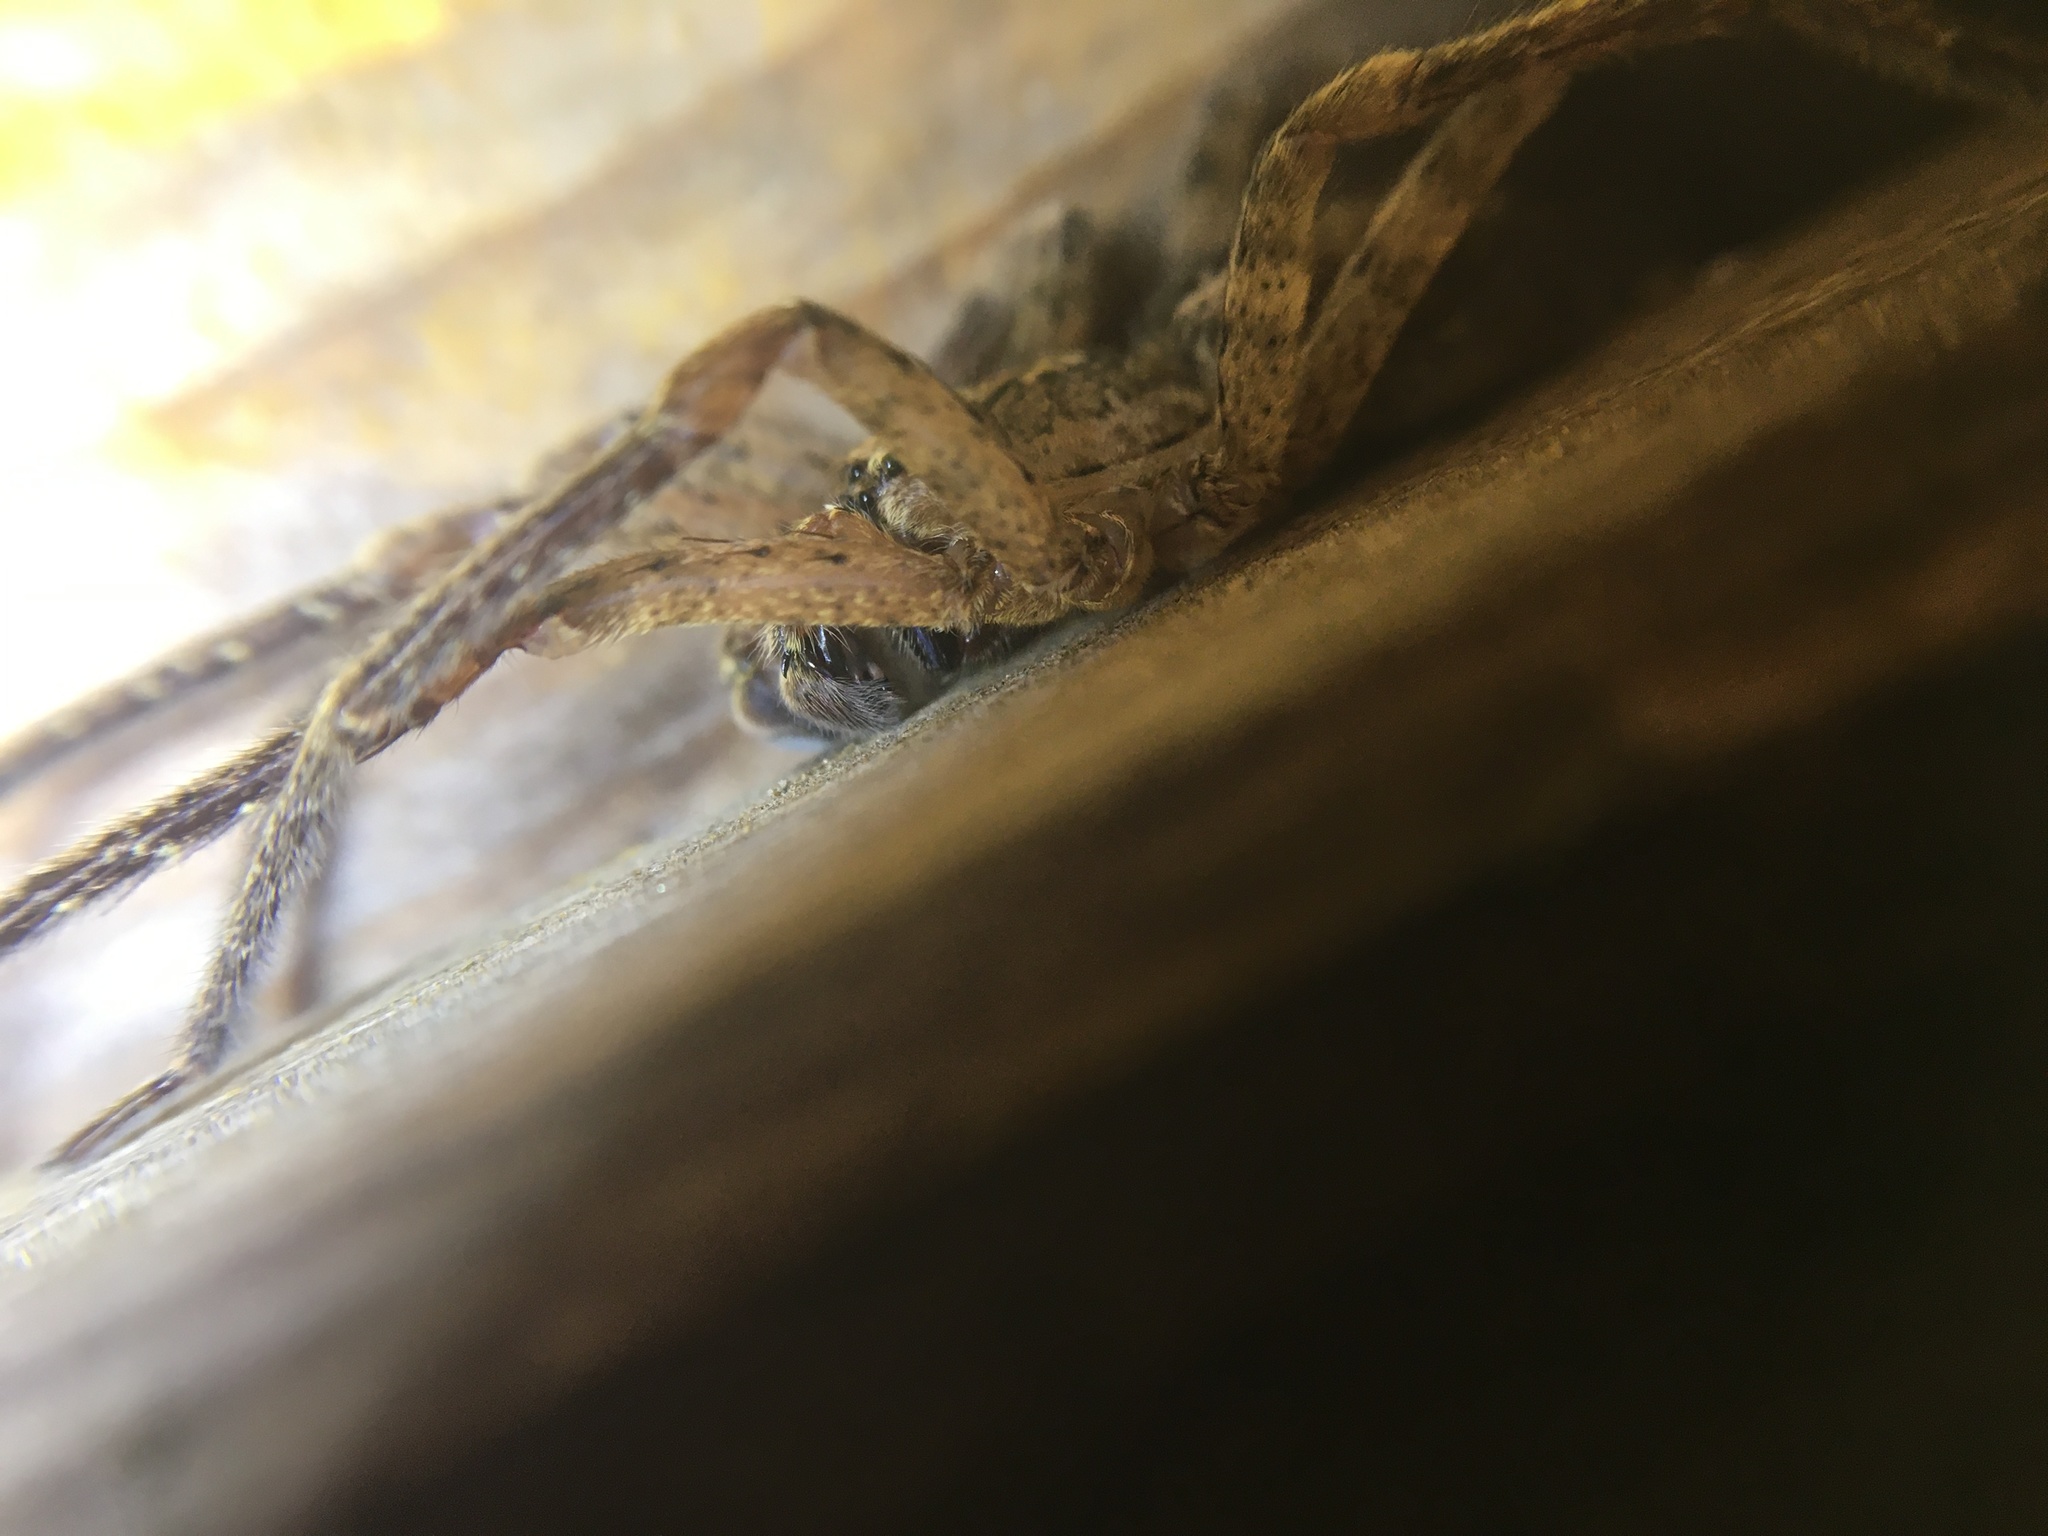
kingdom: Animalia
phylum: Arthropoda
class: Arachnida
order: Araneae
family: Zoropsidae
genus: Zoropsis
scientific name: Zoropsis spinimana
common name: Zoropsid spider
